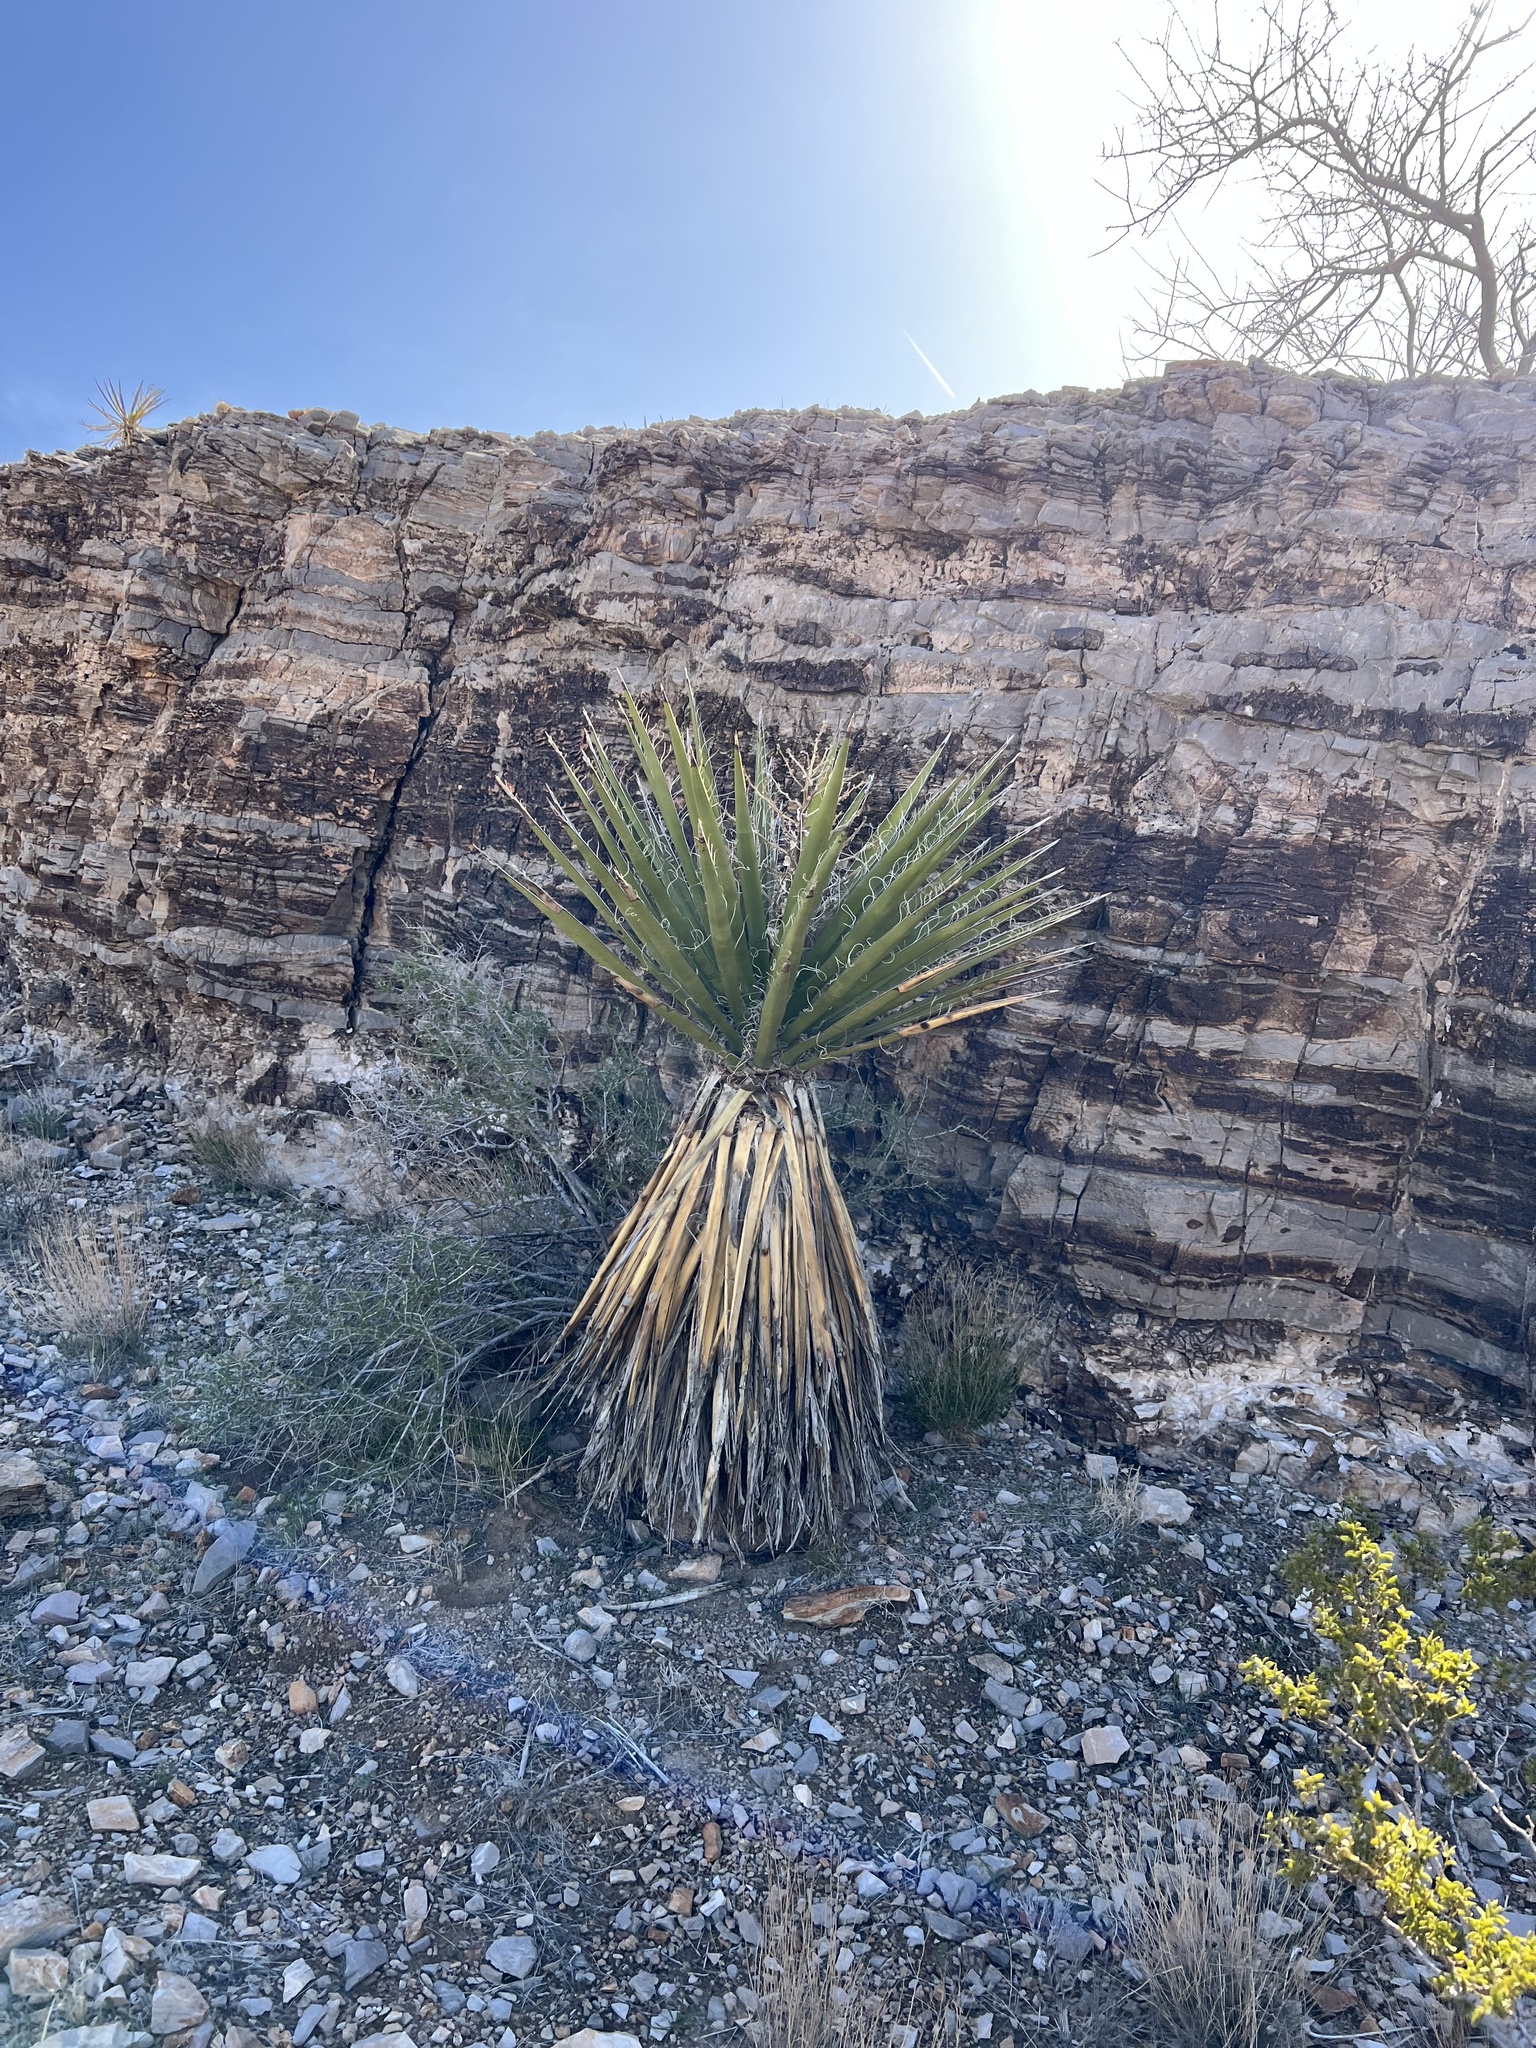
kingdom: Plantae
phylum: Tracheophyta
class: Liliopsida
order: Asparagales
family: Asparagaceae
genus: Yucca
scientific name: Yucca schidigera
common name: Mojave yucca
